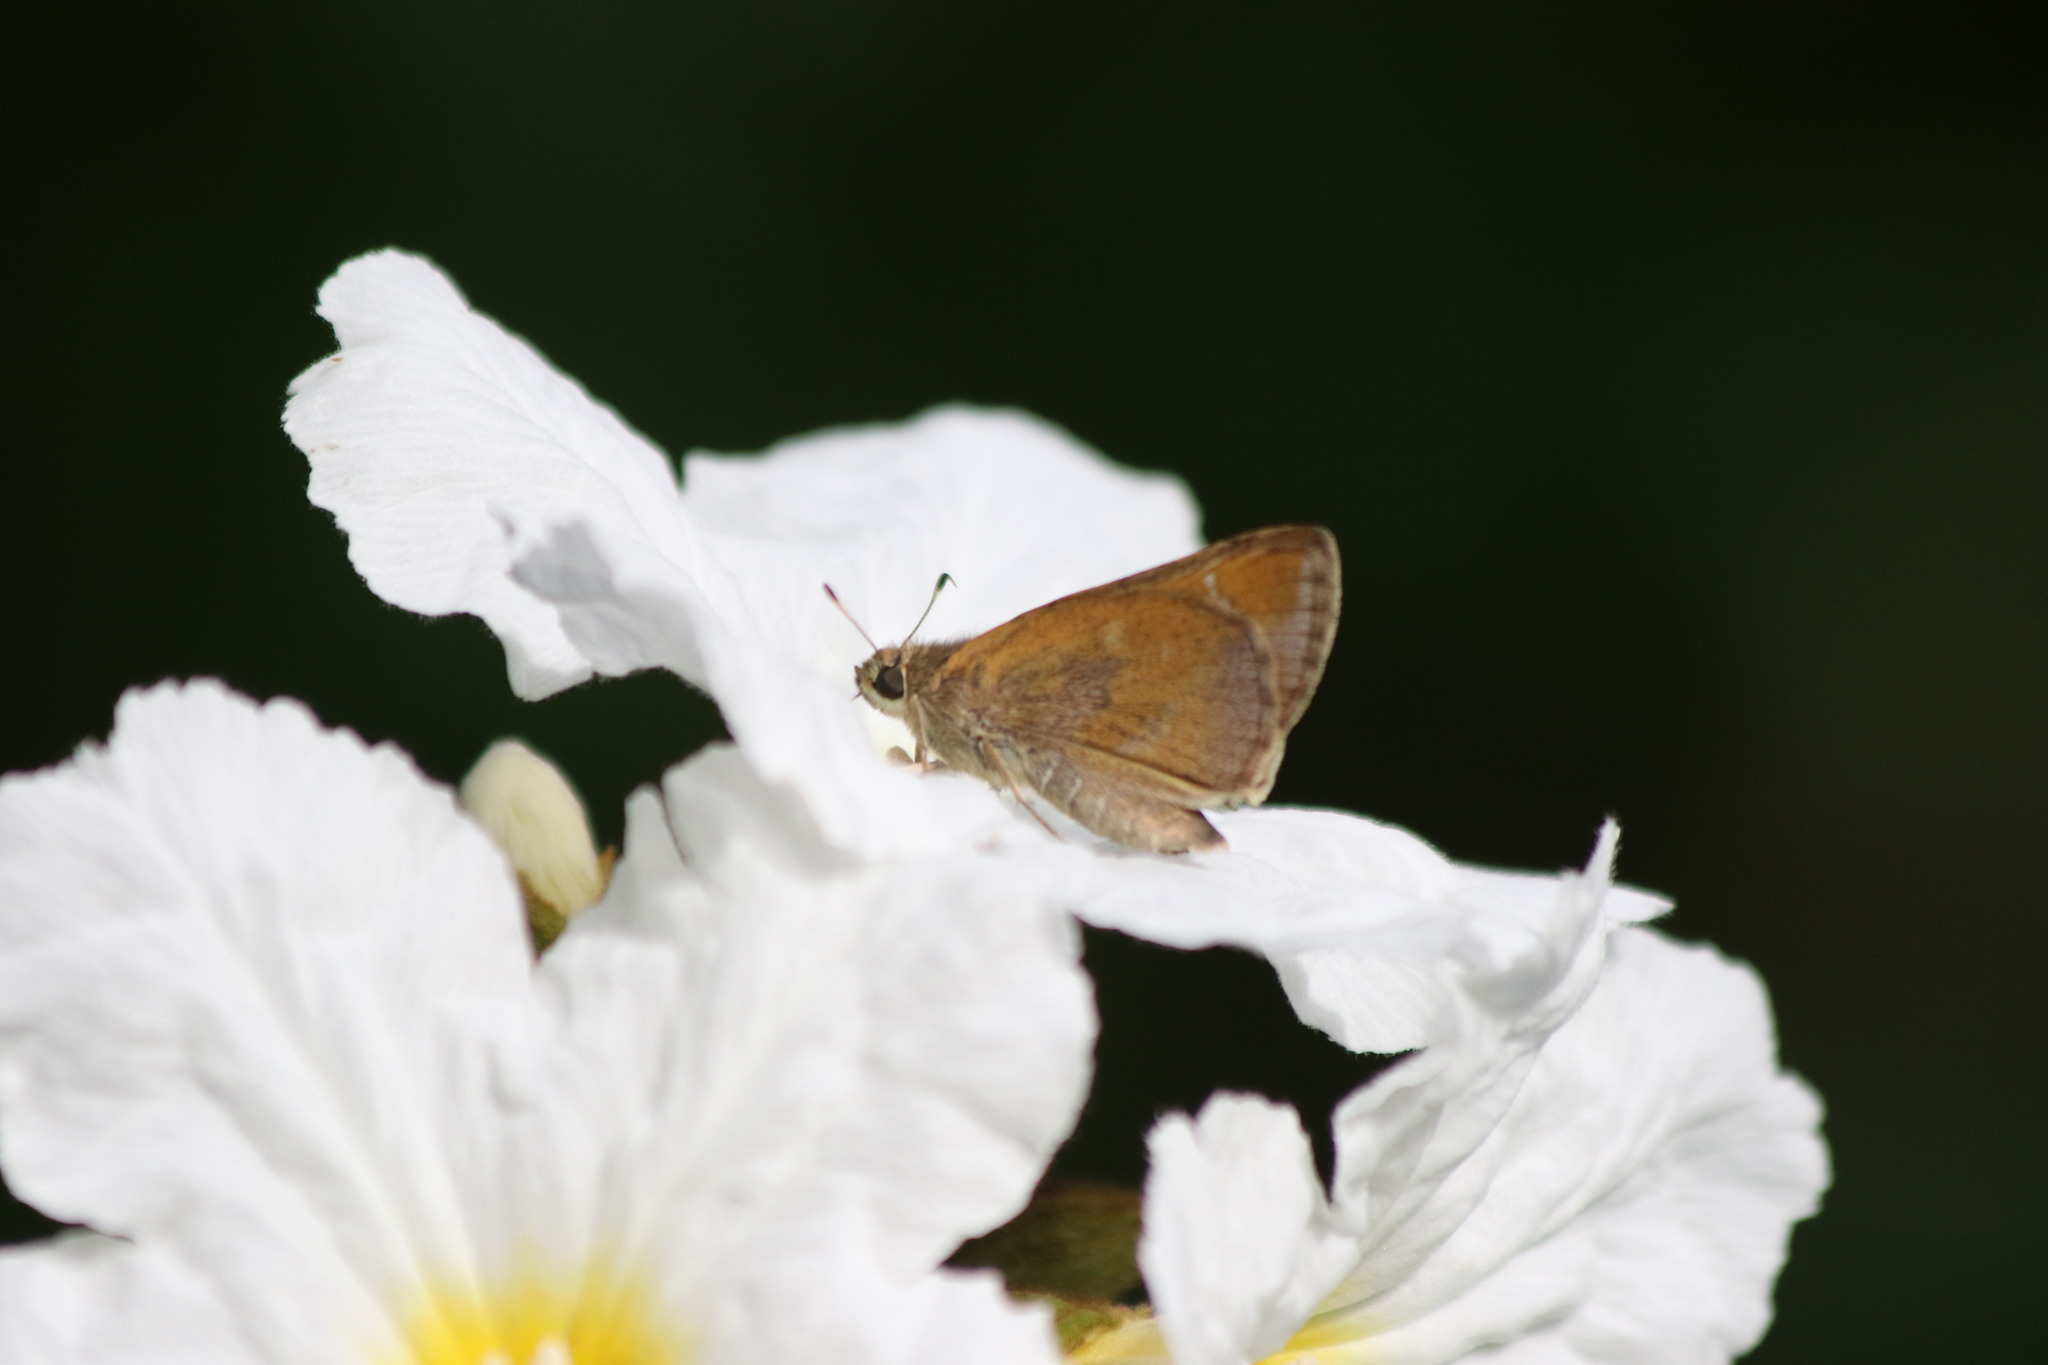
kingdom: Animalia
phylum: Arthropoda
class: Insecta
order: Lepidoptera
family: Hesperiidae
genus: Lerema
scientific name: Lerema accius
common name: Clouded skipper
